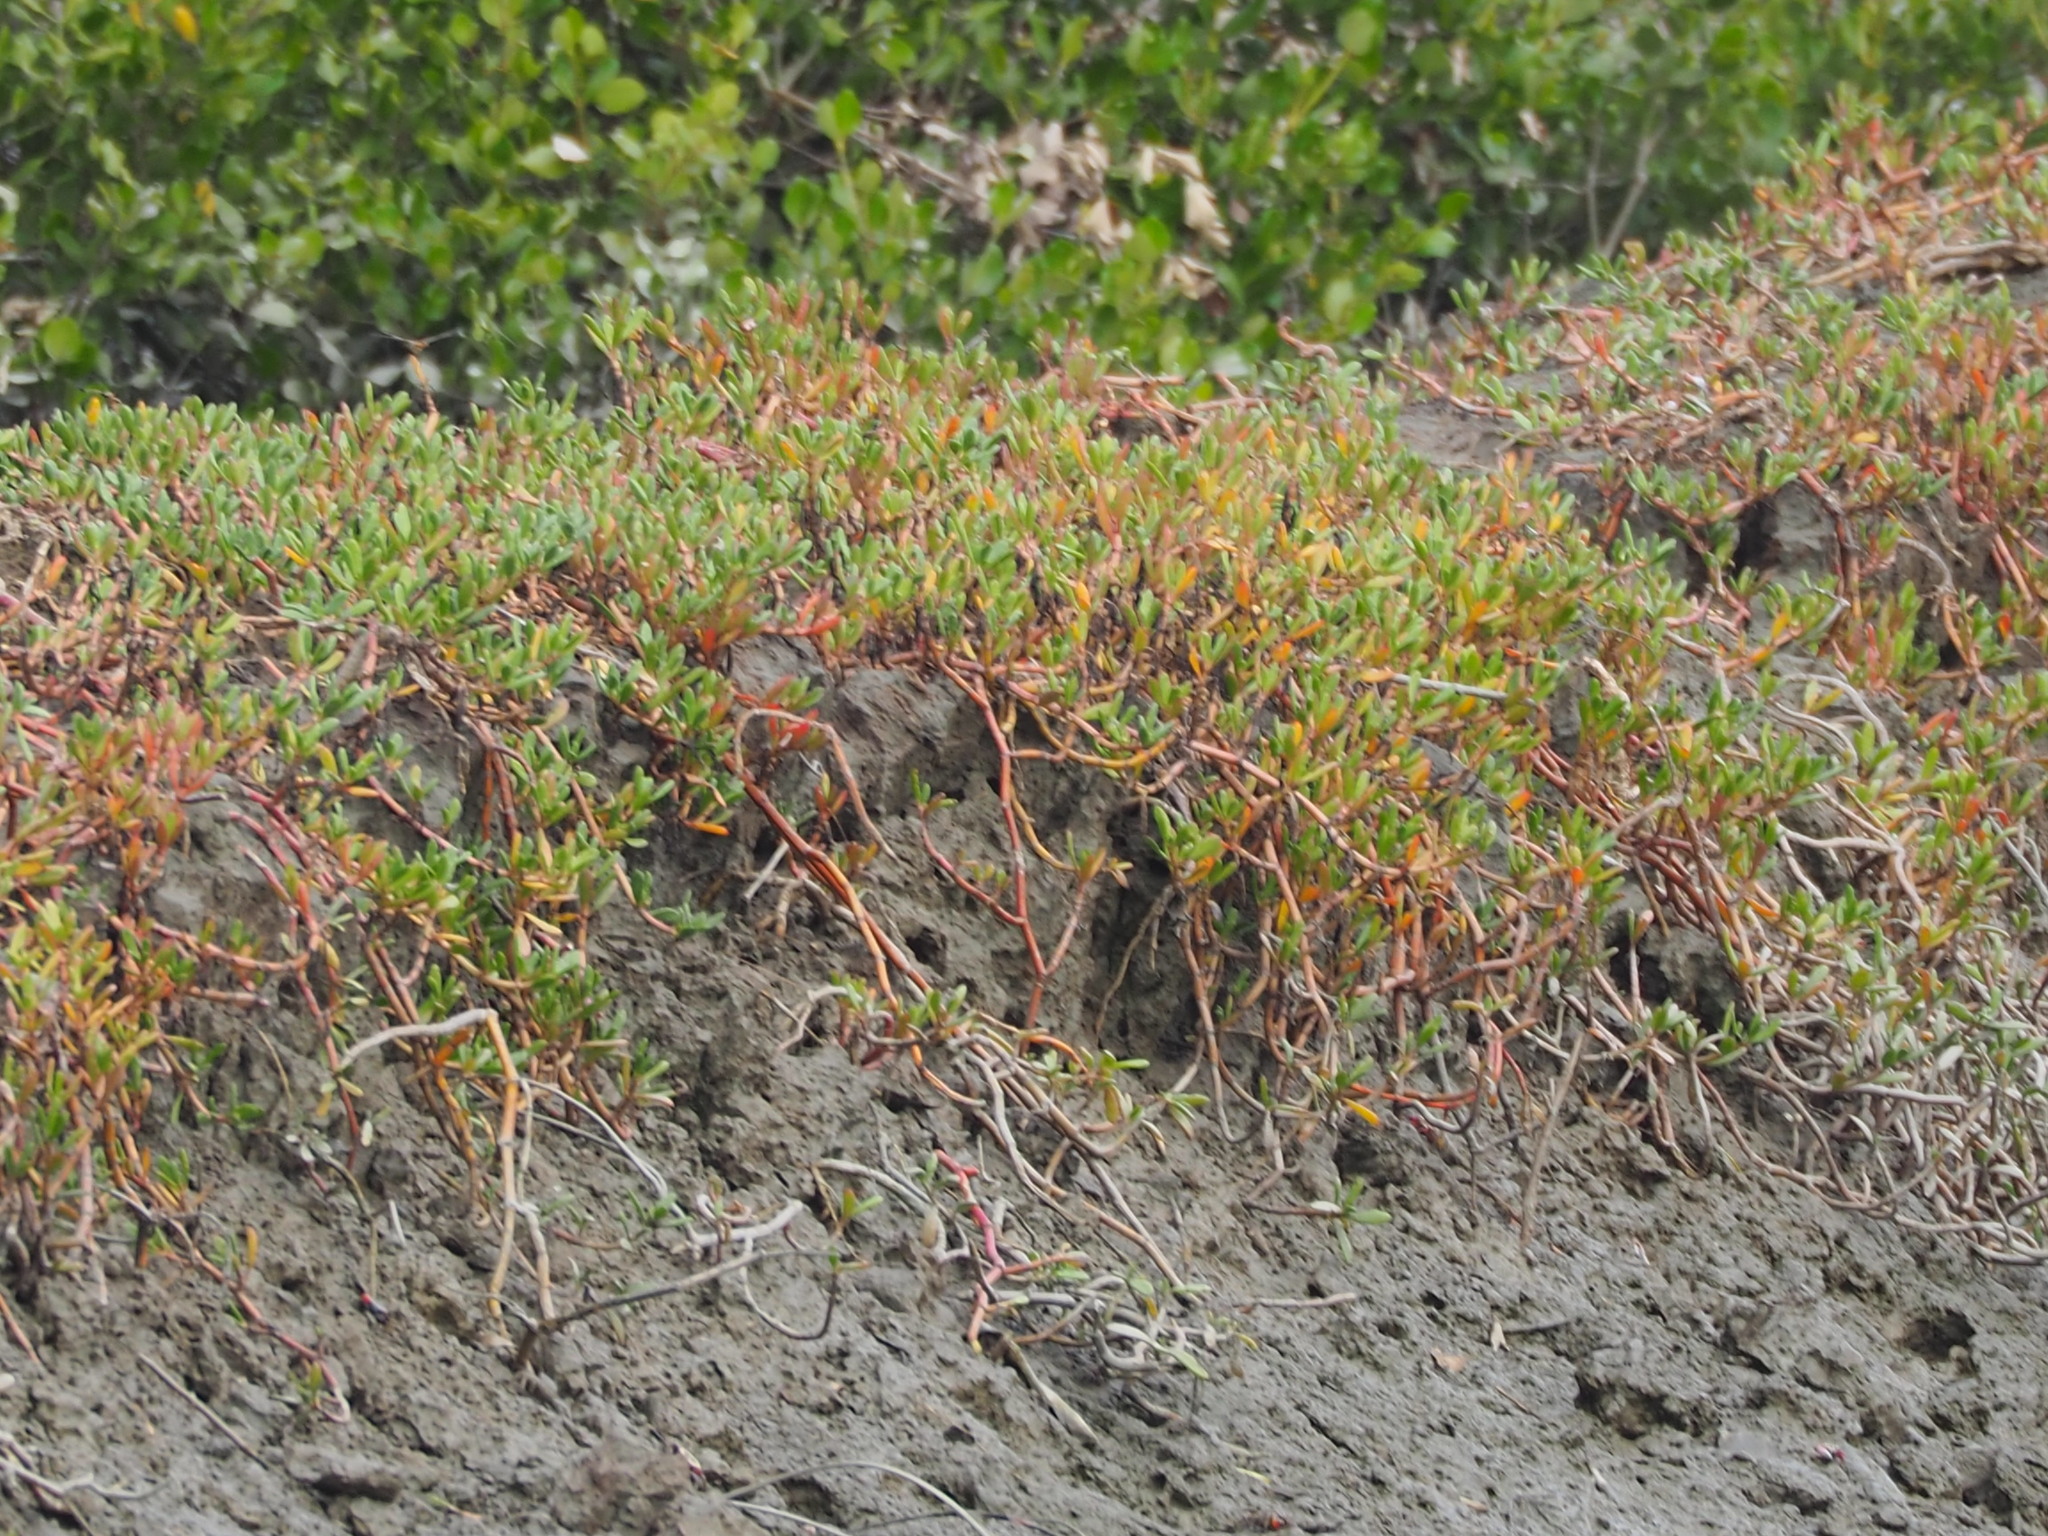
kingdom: Plantae
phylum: Tracheophyta
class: Magnoliopsida
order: Caryophyllales
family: Aizoaceae
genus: Sesuvium
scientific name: Sesuvium portulacastrum
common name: Sea-purslane
